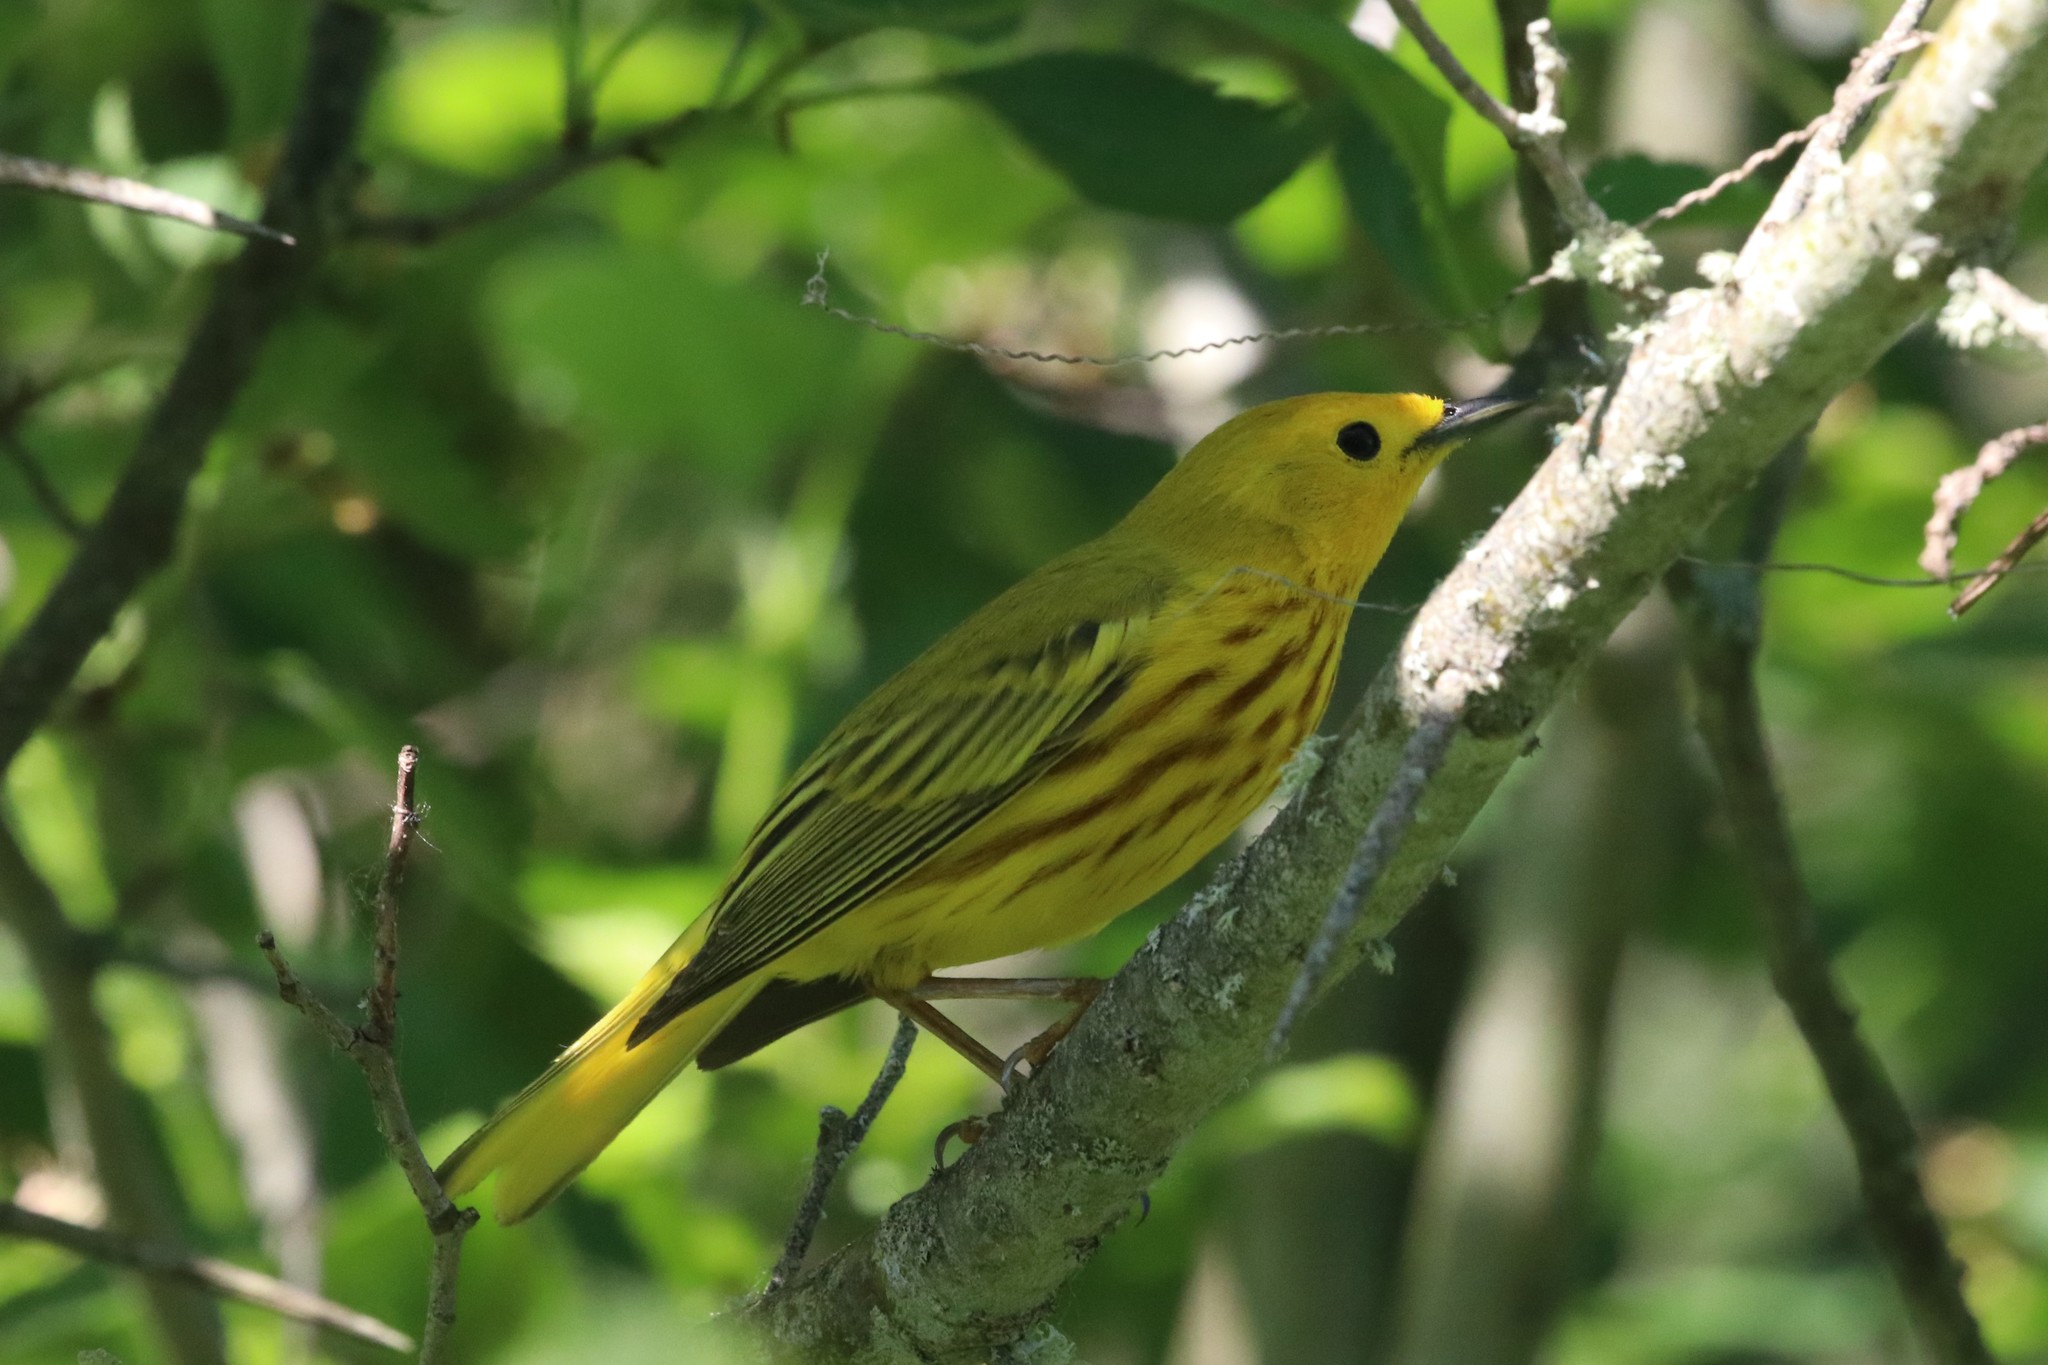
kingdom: Animalia
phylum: Chordata
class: Aves
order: Passeriformes
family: Parulidae
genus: Setophaga
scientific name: Setophaga petechia
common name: Yellow warbler
